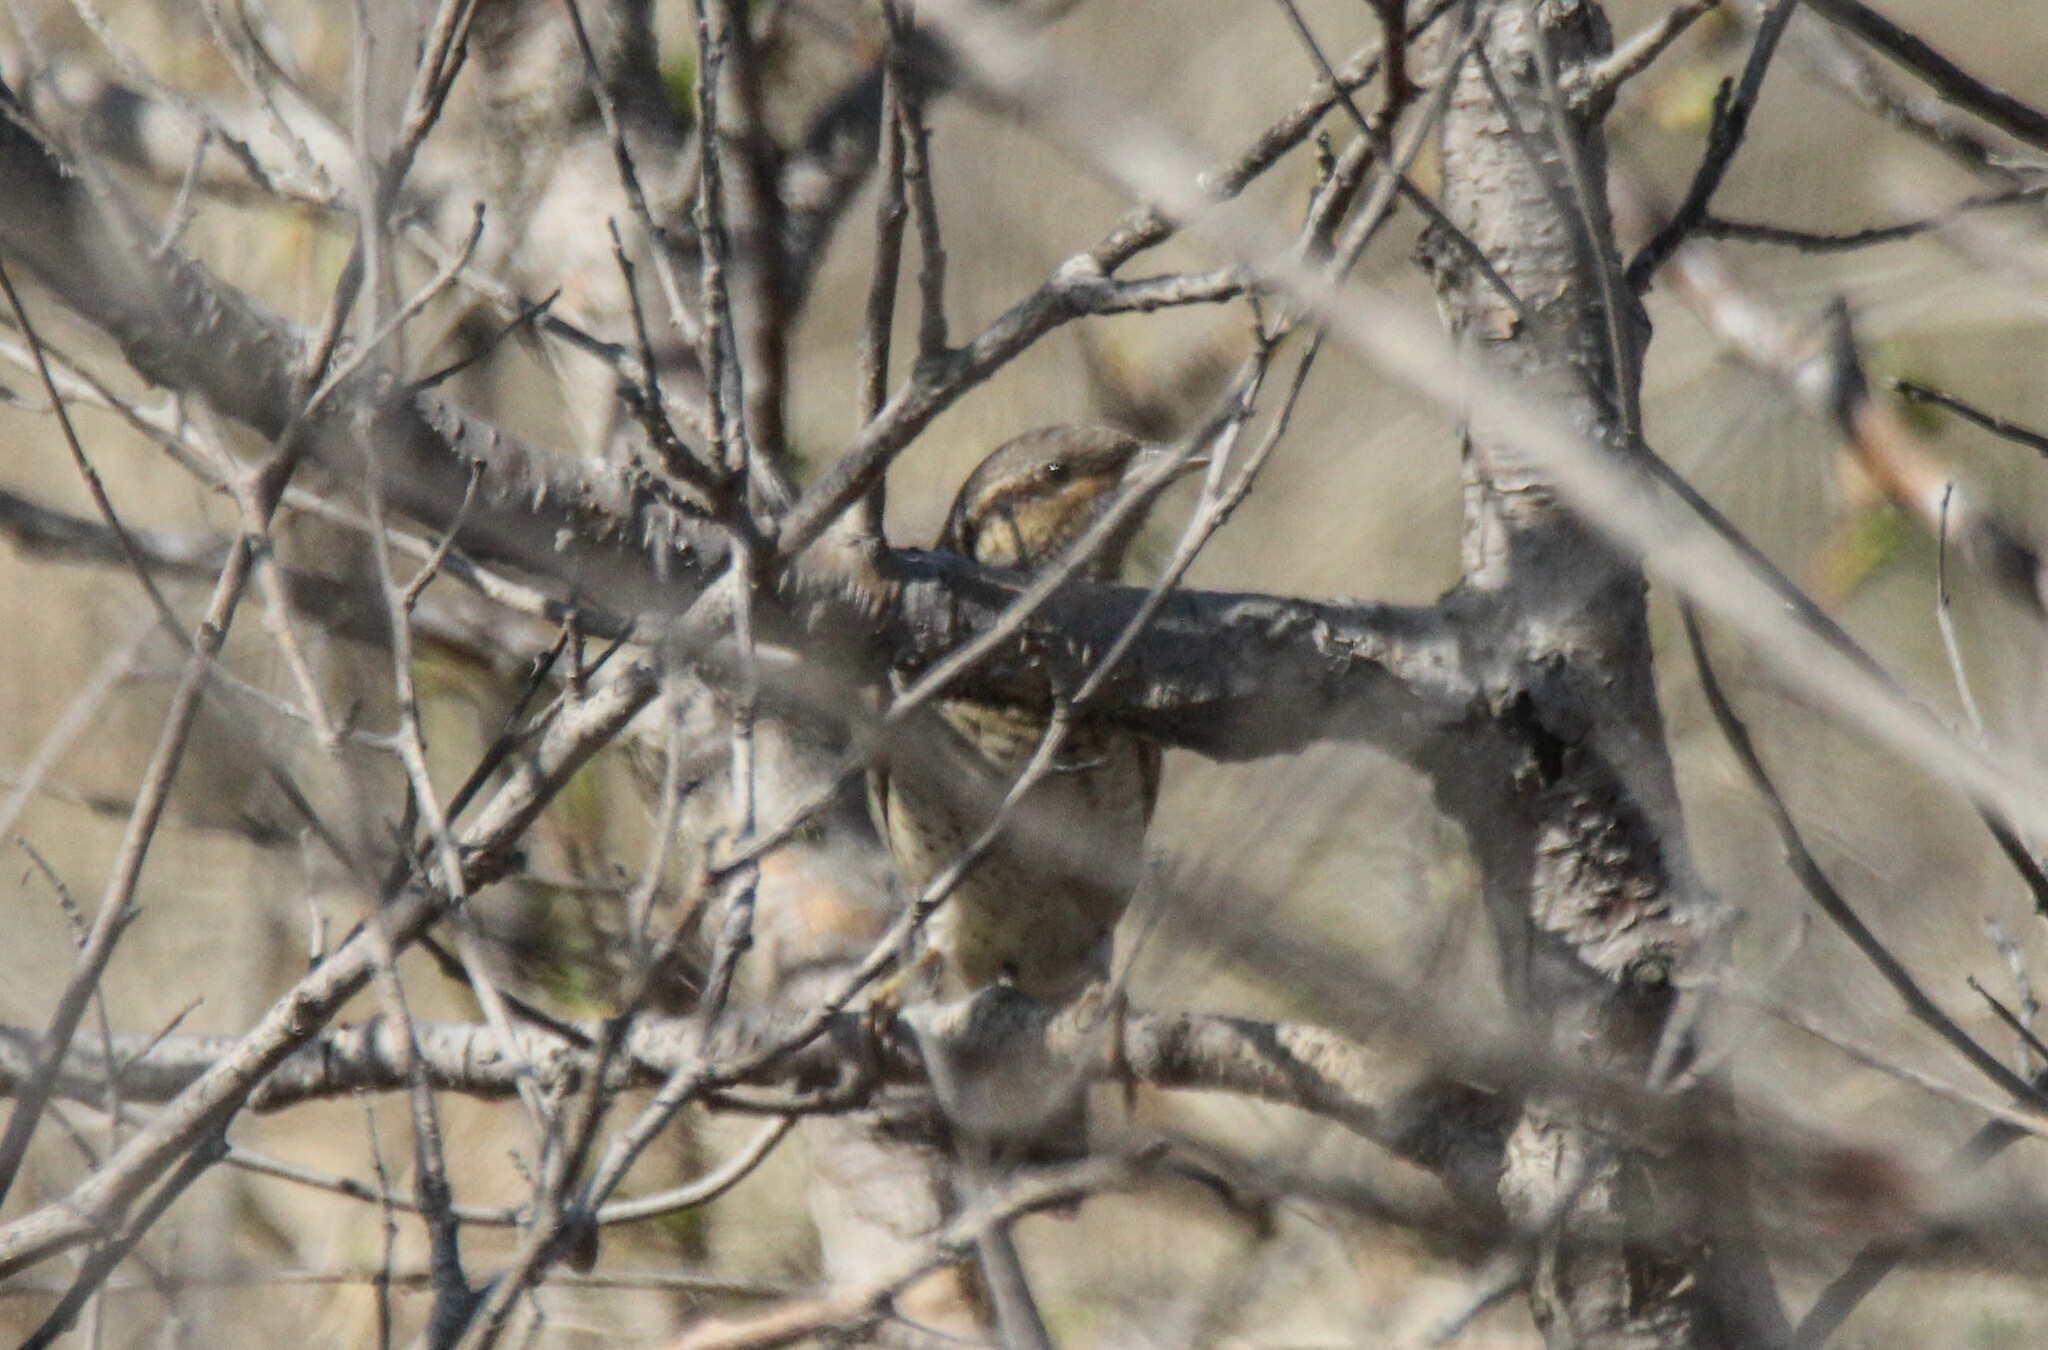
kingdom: Animalia
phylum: Chordata
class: Aves
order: Piciformes
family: Picidae
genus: Jynx
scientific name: Jynx torquilla
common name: Eurasian wryneck
